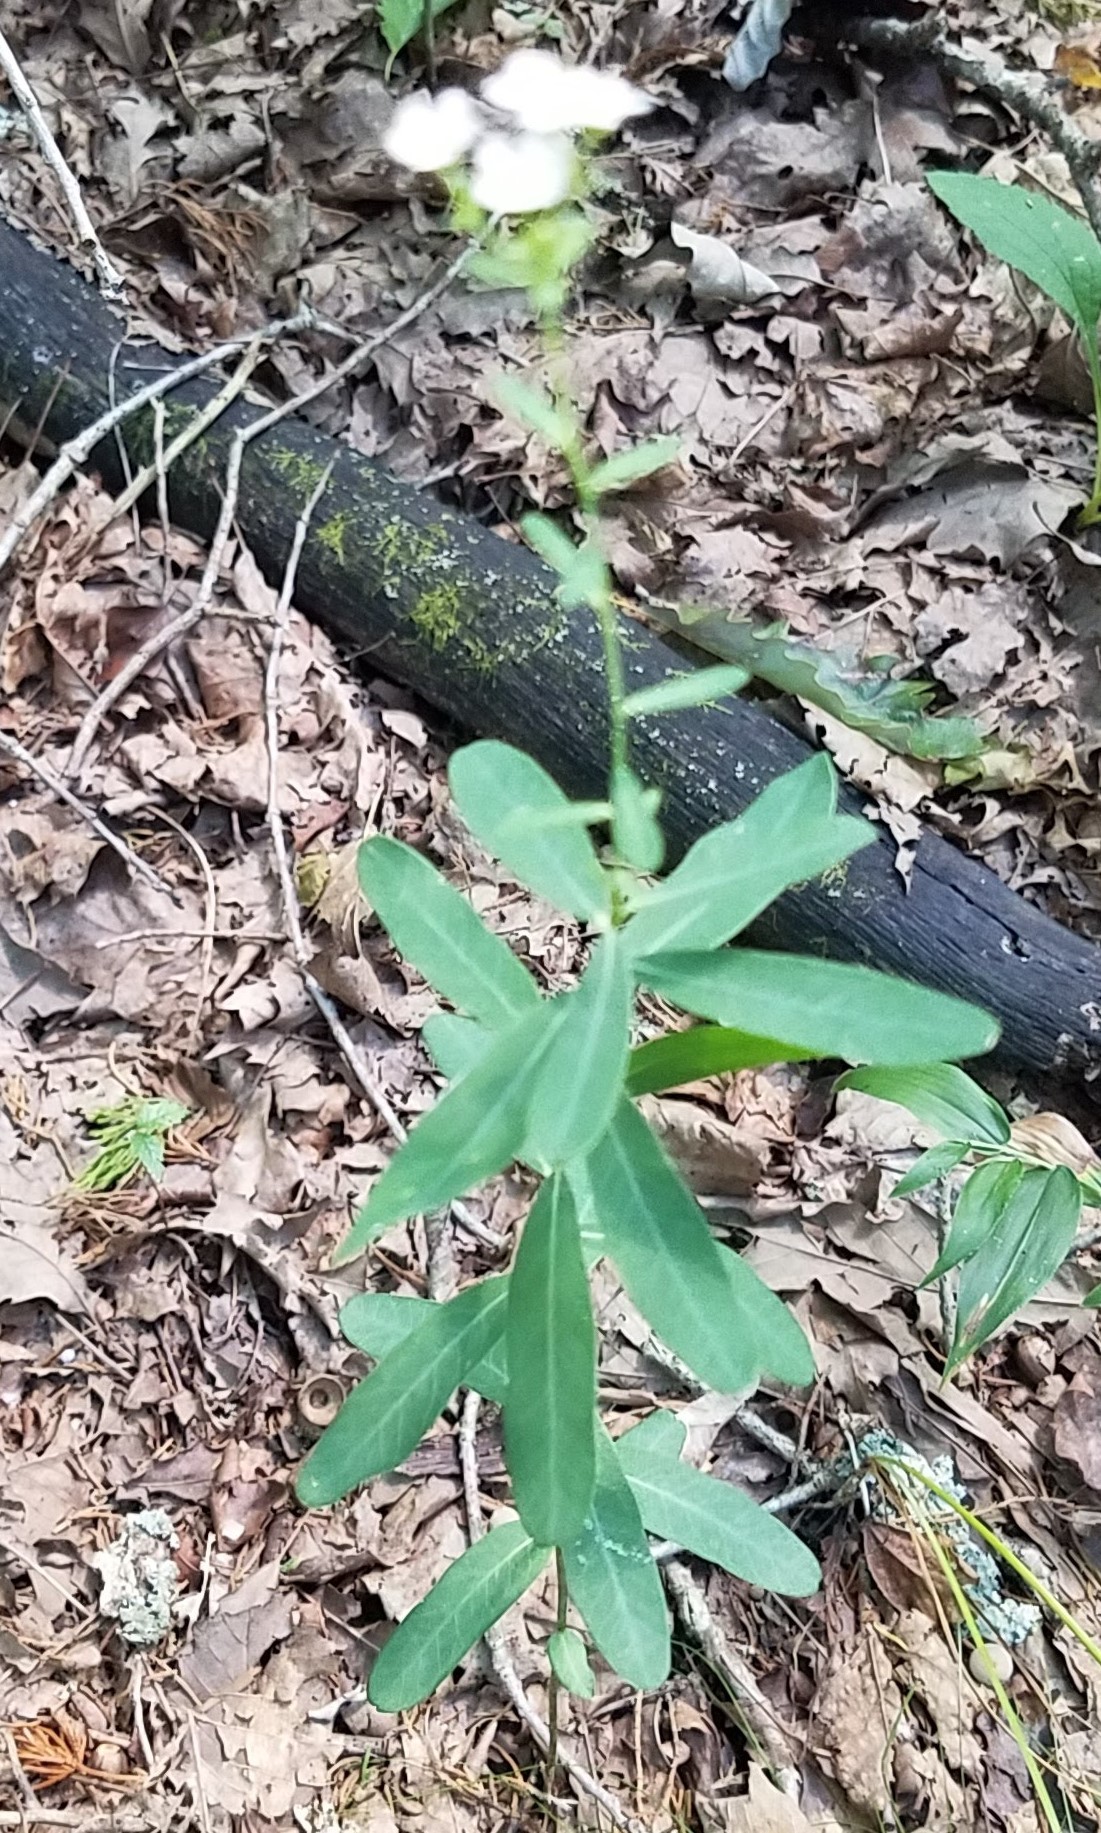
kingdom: Plantae
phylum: Tracheophyta
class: Magnoliopsida
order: Malpighiales
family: Euphorbiaceae
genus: Euphorbia
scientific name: Euphorbia corollata
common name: Flowering spurge
